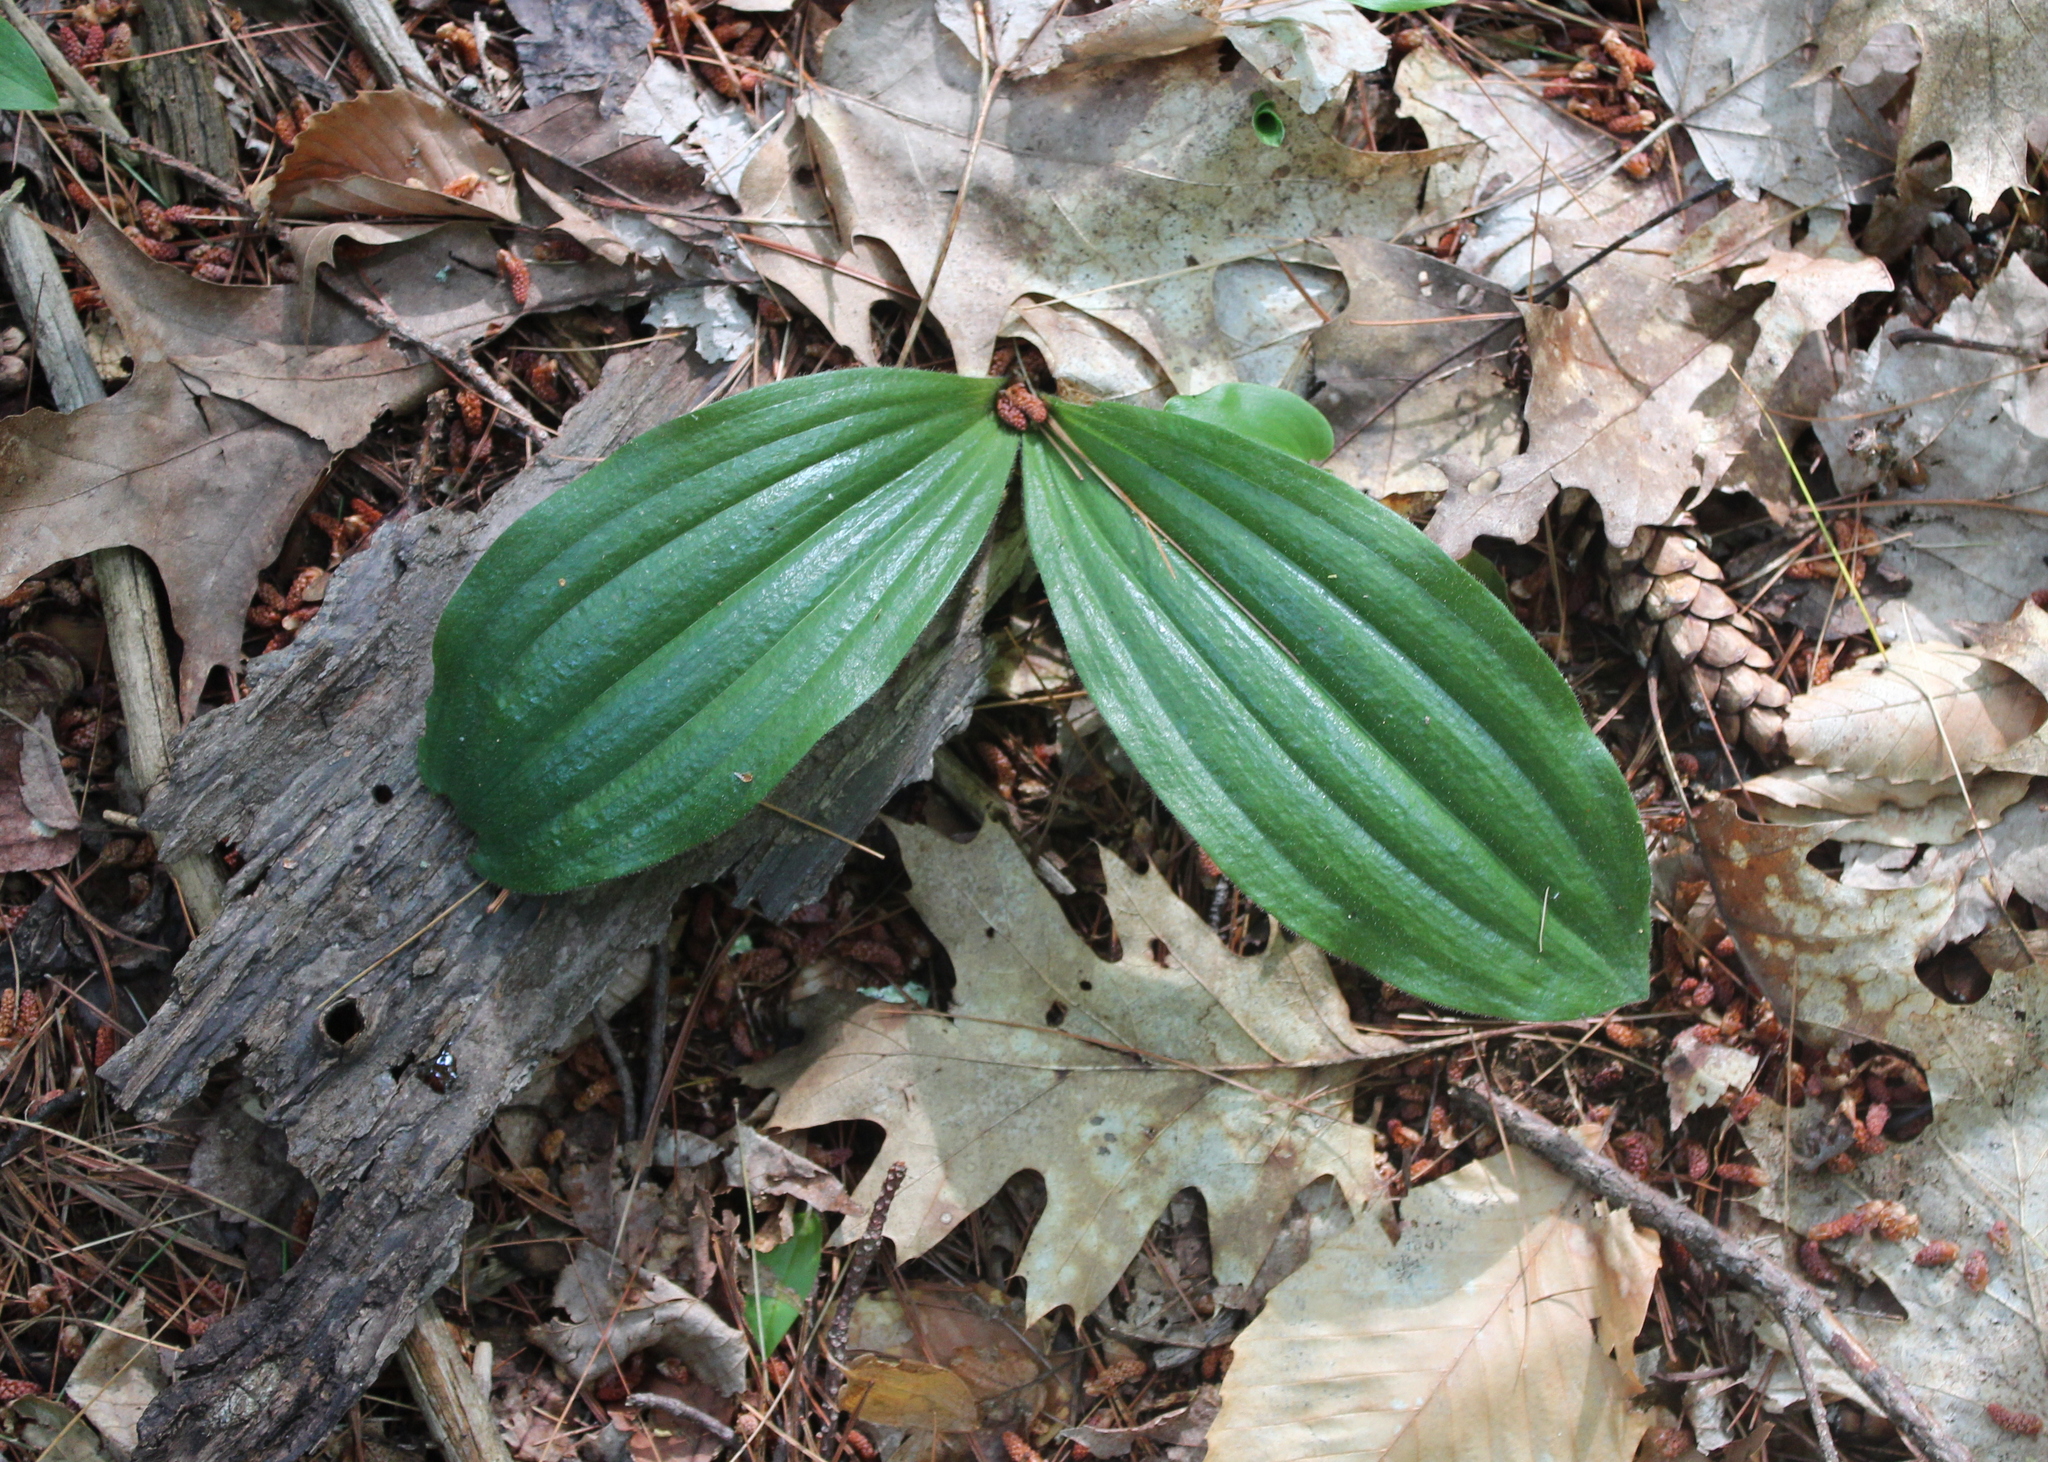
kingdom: Plantae
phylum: Tracheophyta
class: Liliopsida
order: Asparagales
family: Orchidaceae
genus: Cypripedium
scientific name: Cypripedium acaule
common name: Pink lady's-slipper
